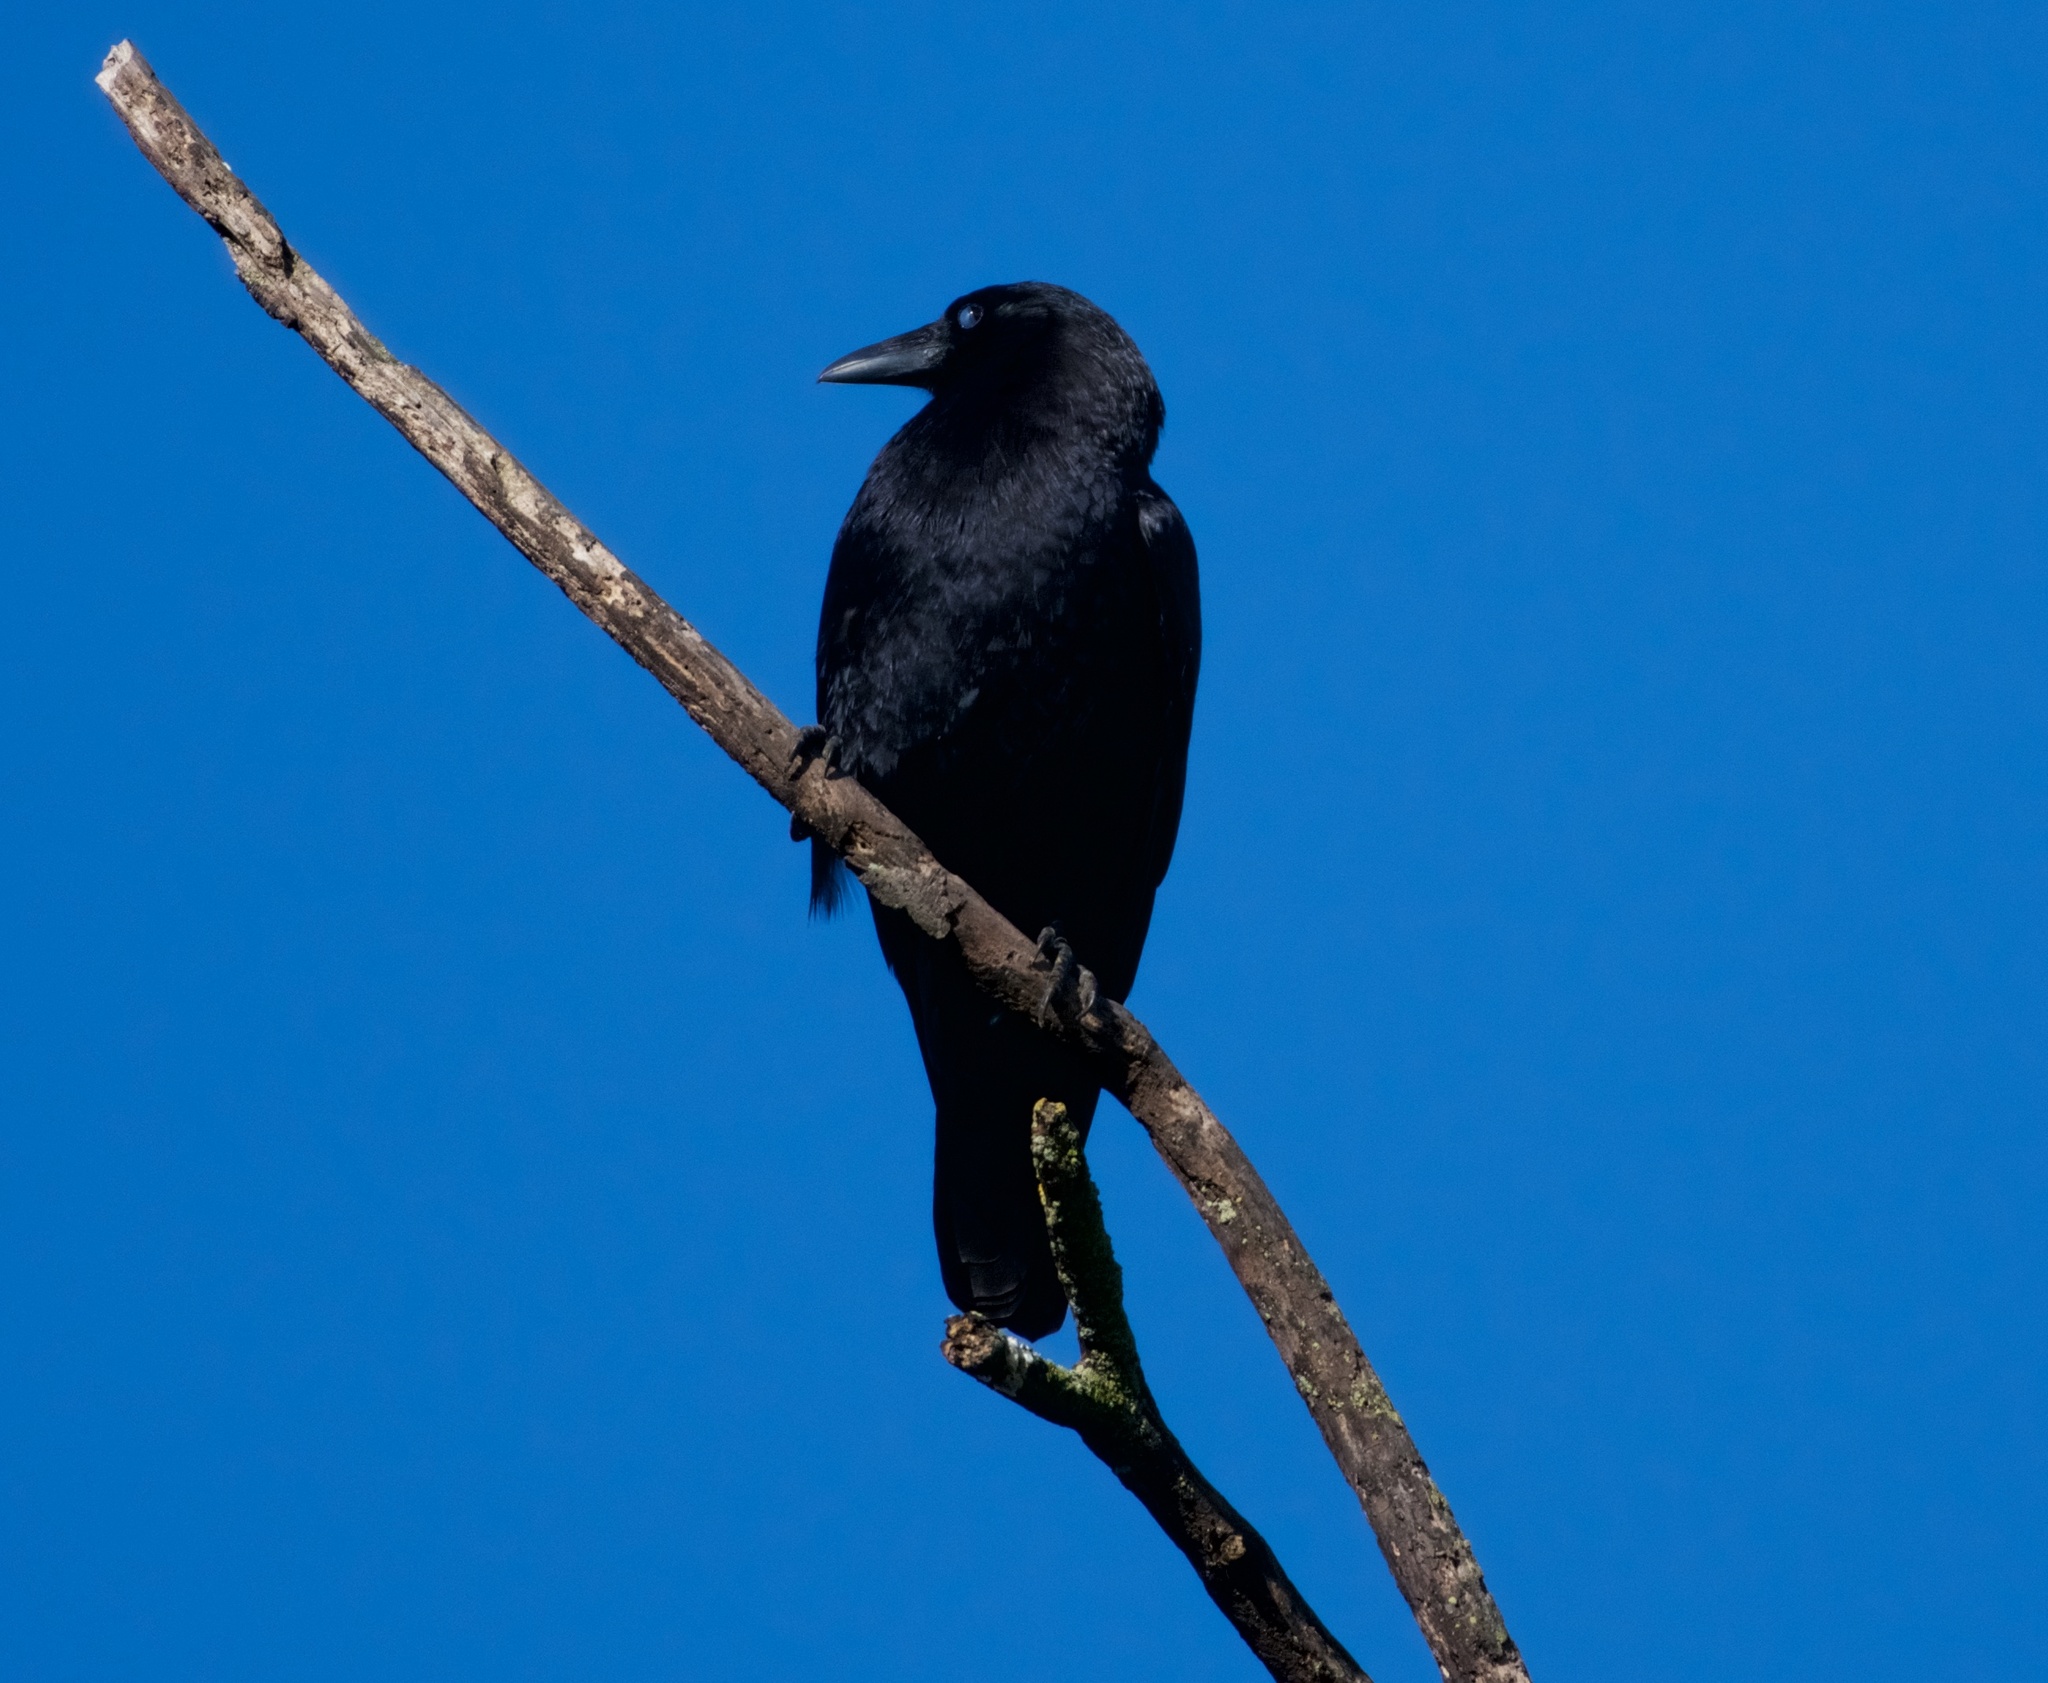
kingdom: Animalia
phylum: Chordata
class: Aves
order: Passeriformes
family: Corvidae
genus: Corvus
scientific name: Corvus brachyrhynchos
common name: American crow
